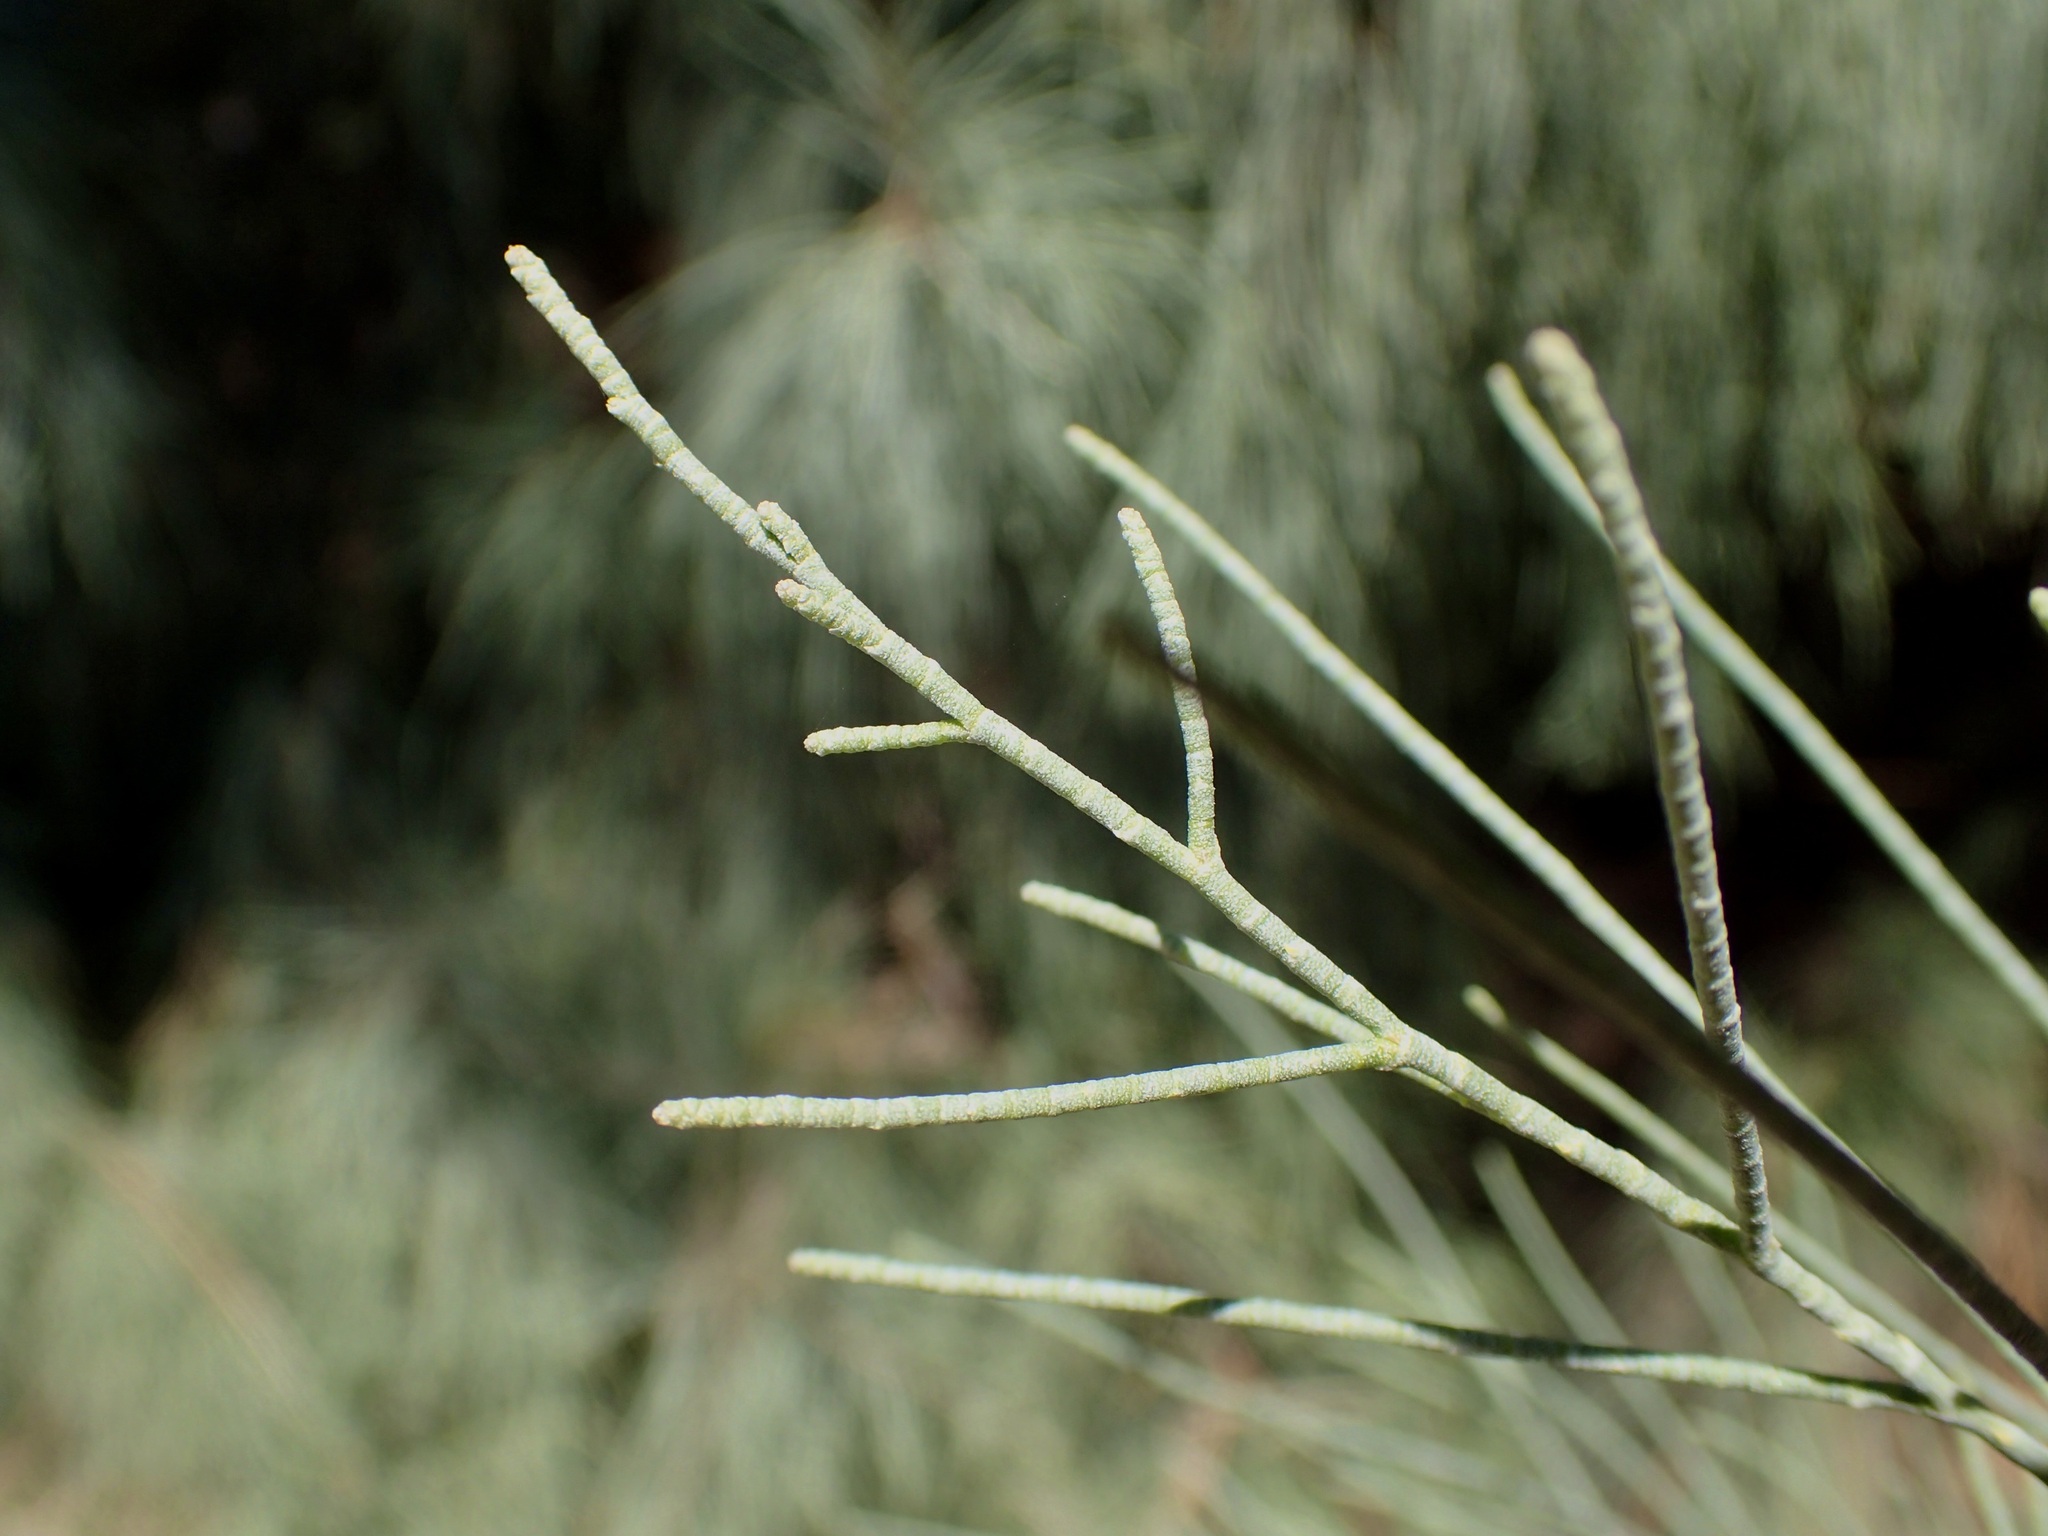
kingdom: Plantae
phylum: Tracheophyta
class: Magnoliopsida
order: Caryophyllales
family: Tamaricaceae
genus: Tamarix
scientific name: Tamarix aphylla
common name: Athel tamarisk
